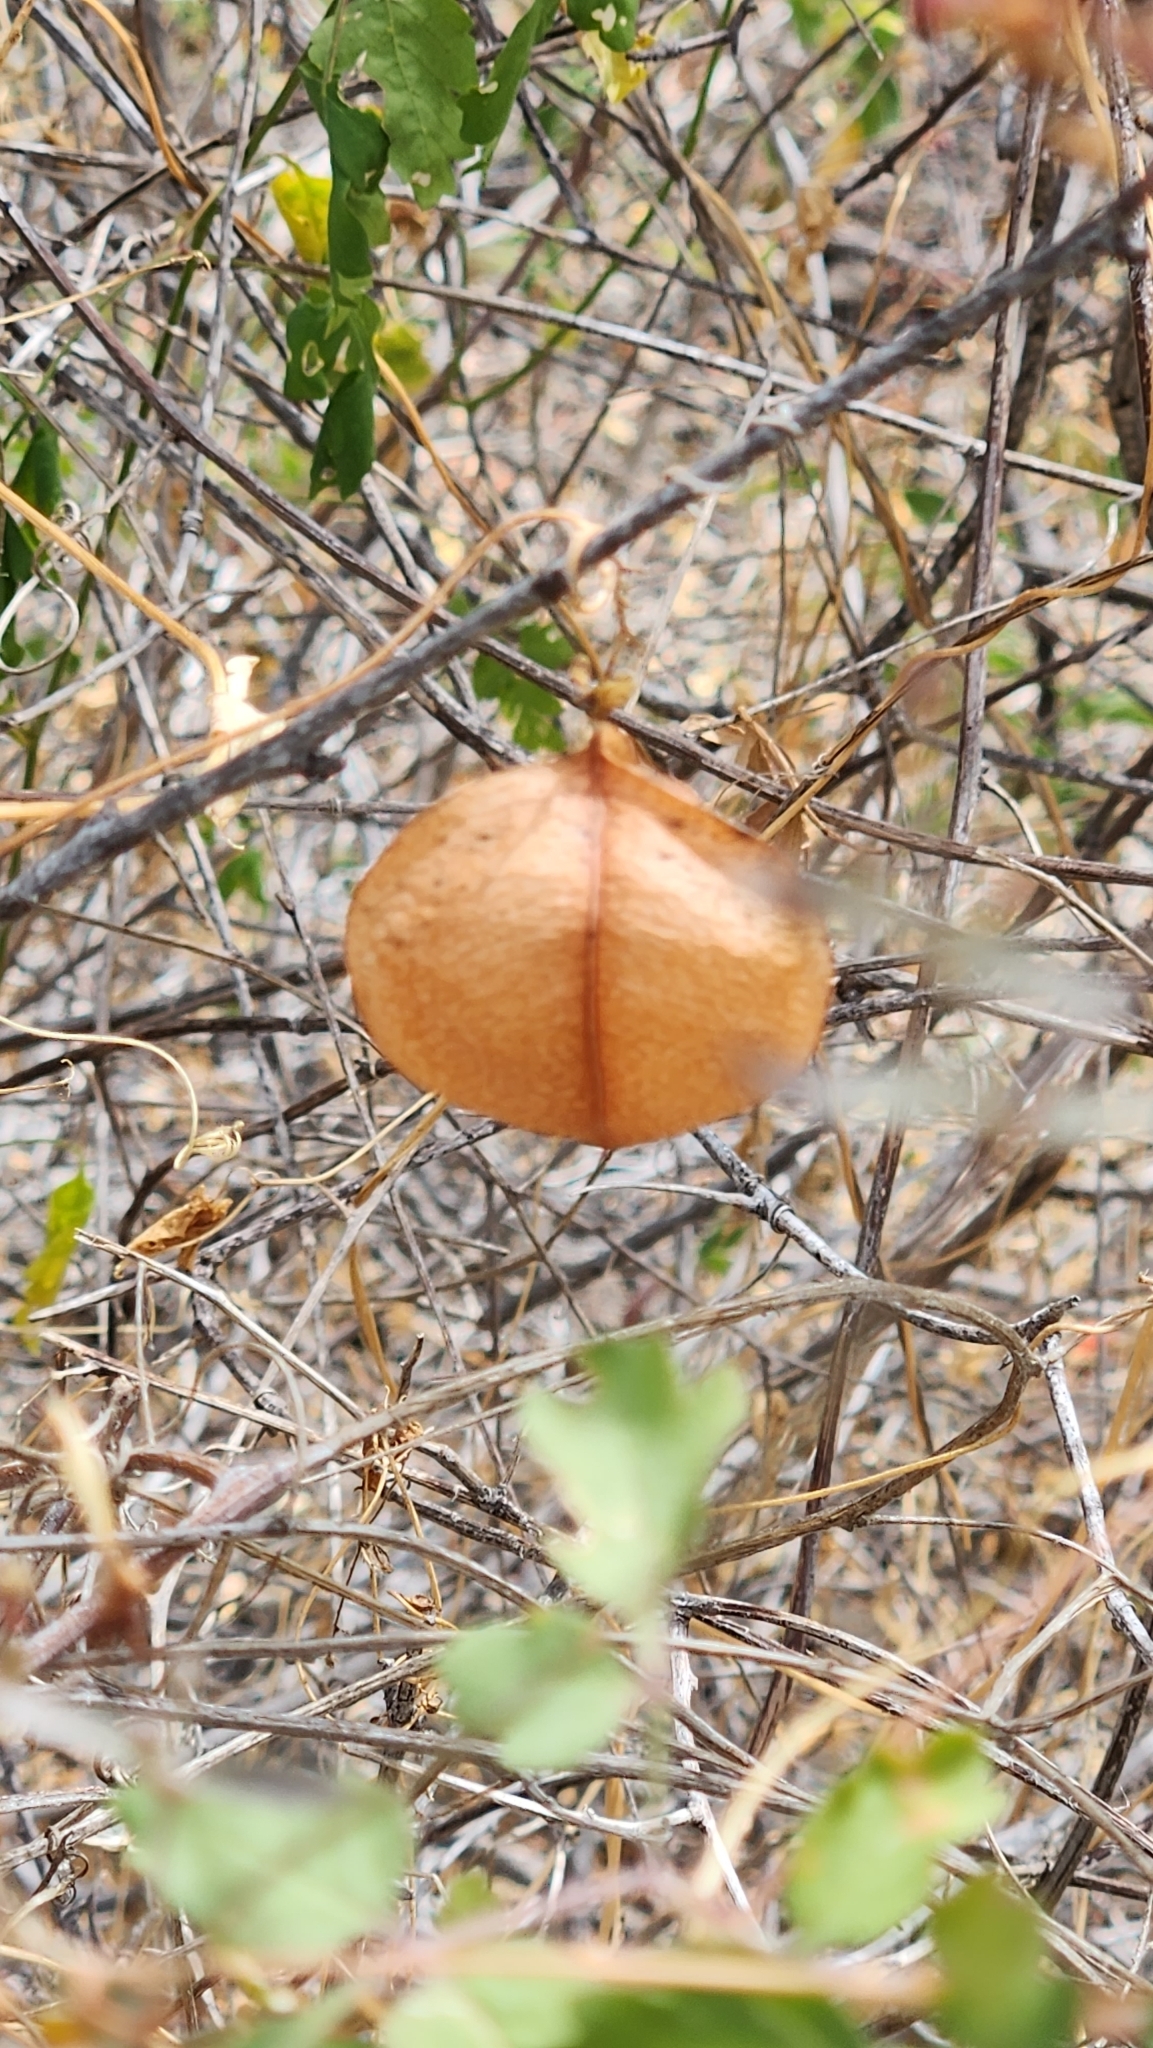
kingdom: Plantae
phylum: Tracheophyta
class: Magnoliopsida
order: Sapindales
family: Sapindaceae
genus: Cardiospermum
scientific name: Cardiospermum corindum
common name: Faux persil
